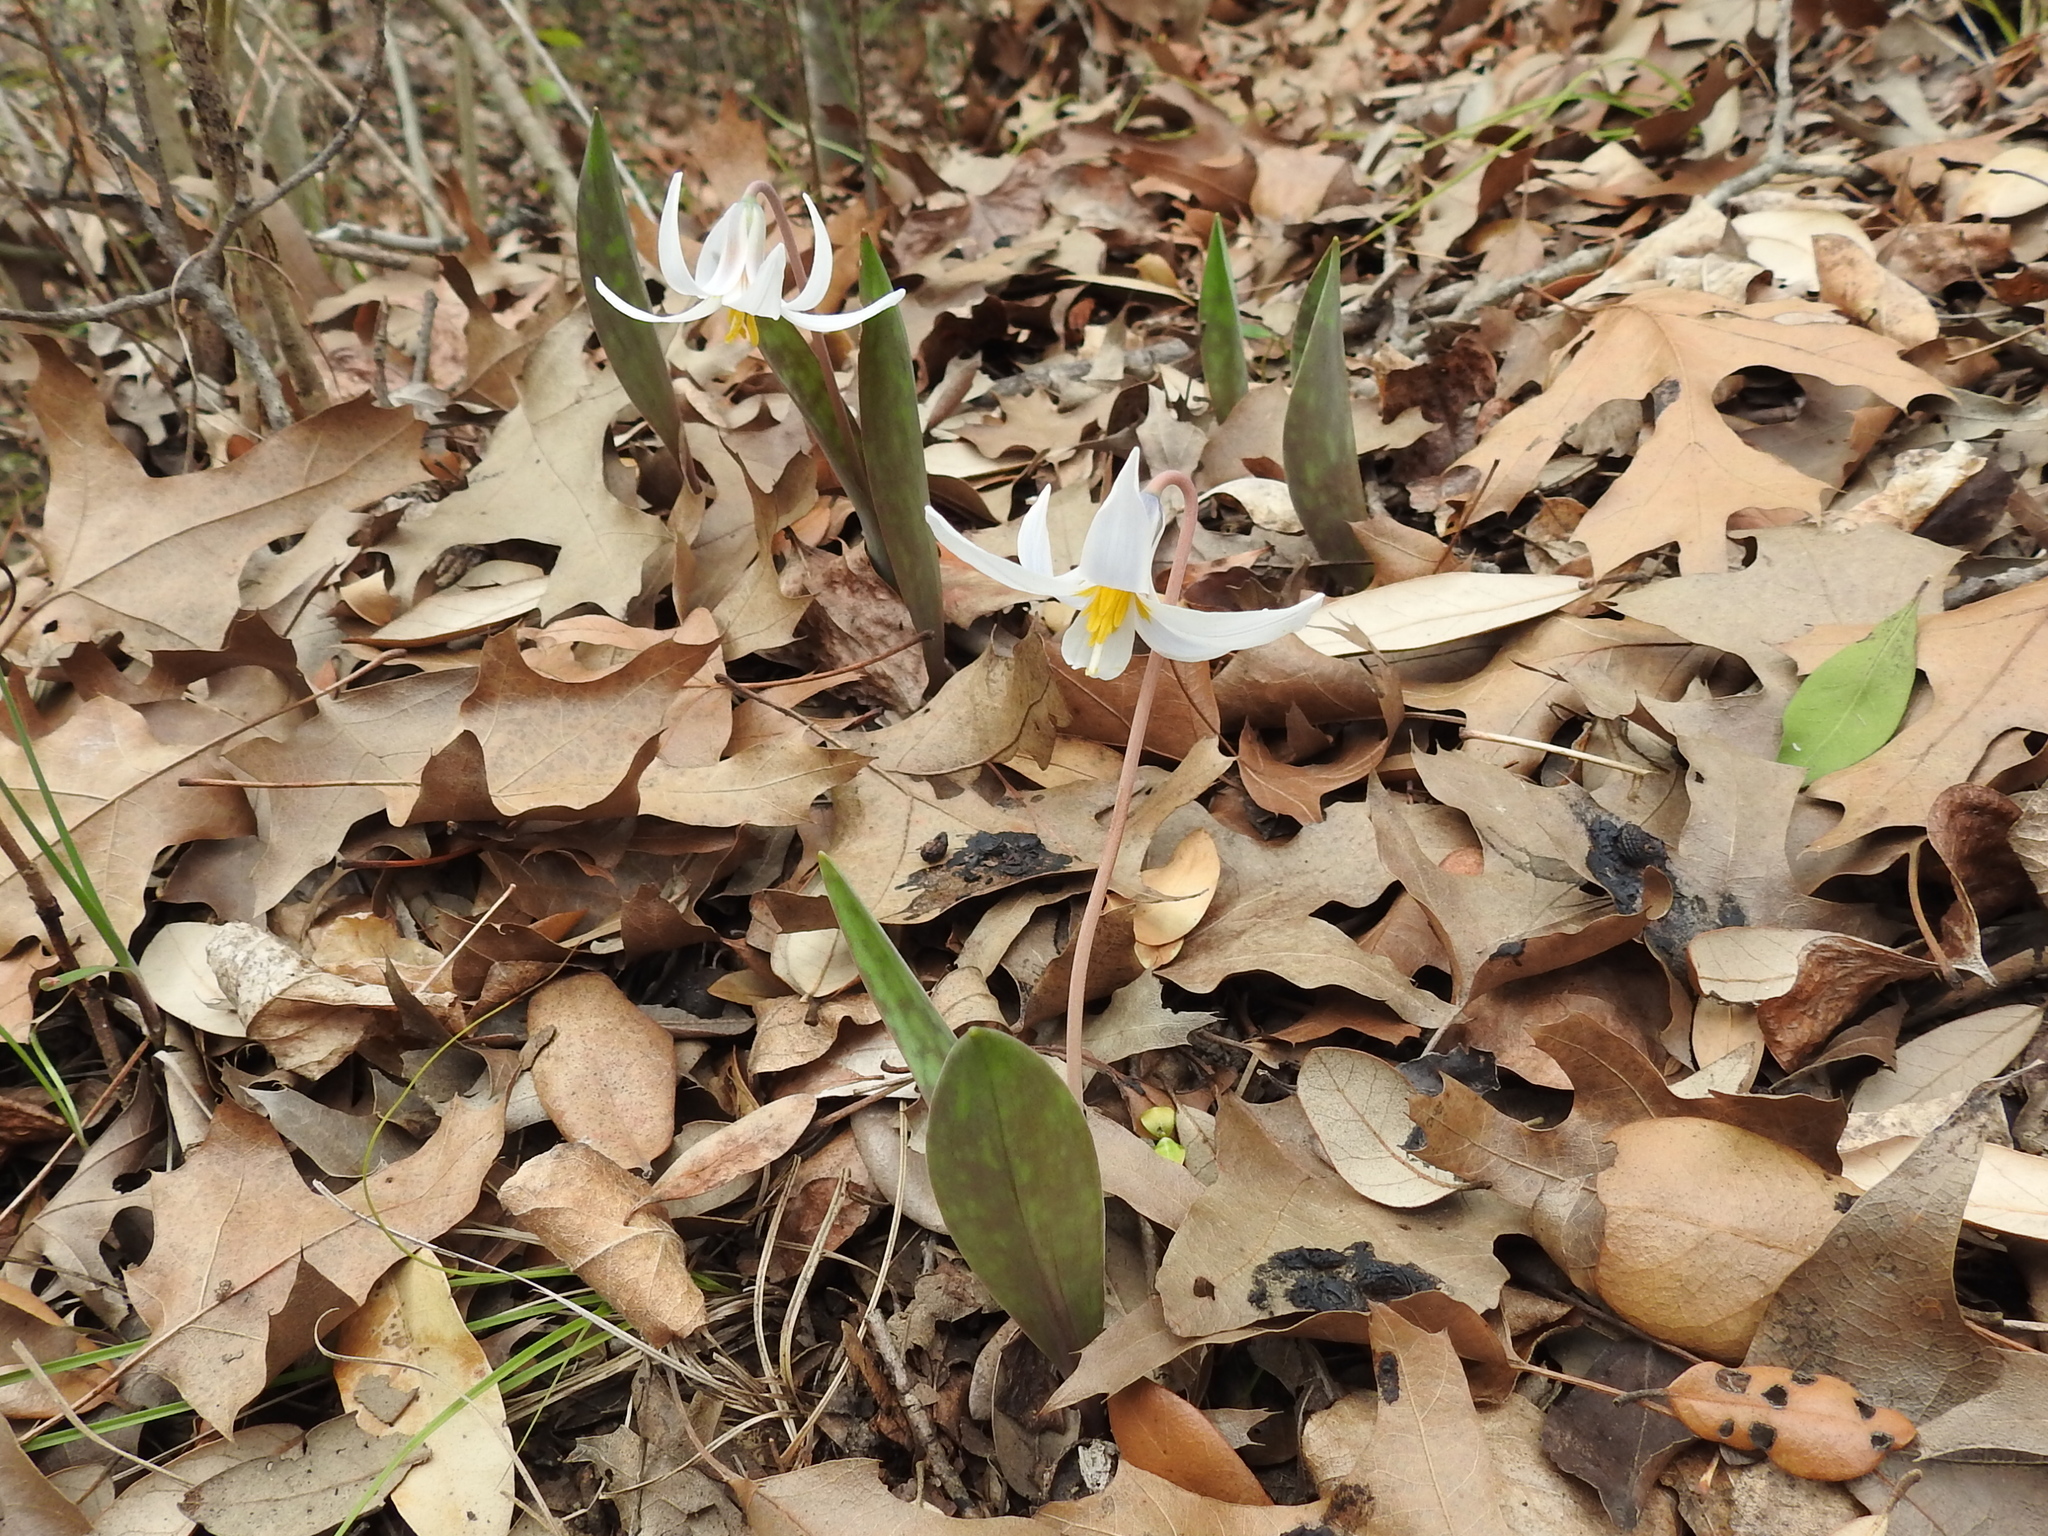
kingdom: Plantae
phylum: Tracheophyta
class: Liliopsida
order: Liliales
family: Liliaceae
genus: Erythronium
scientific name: Erythronium albidum
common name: White trout-lily
